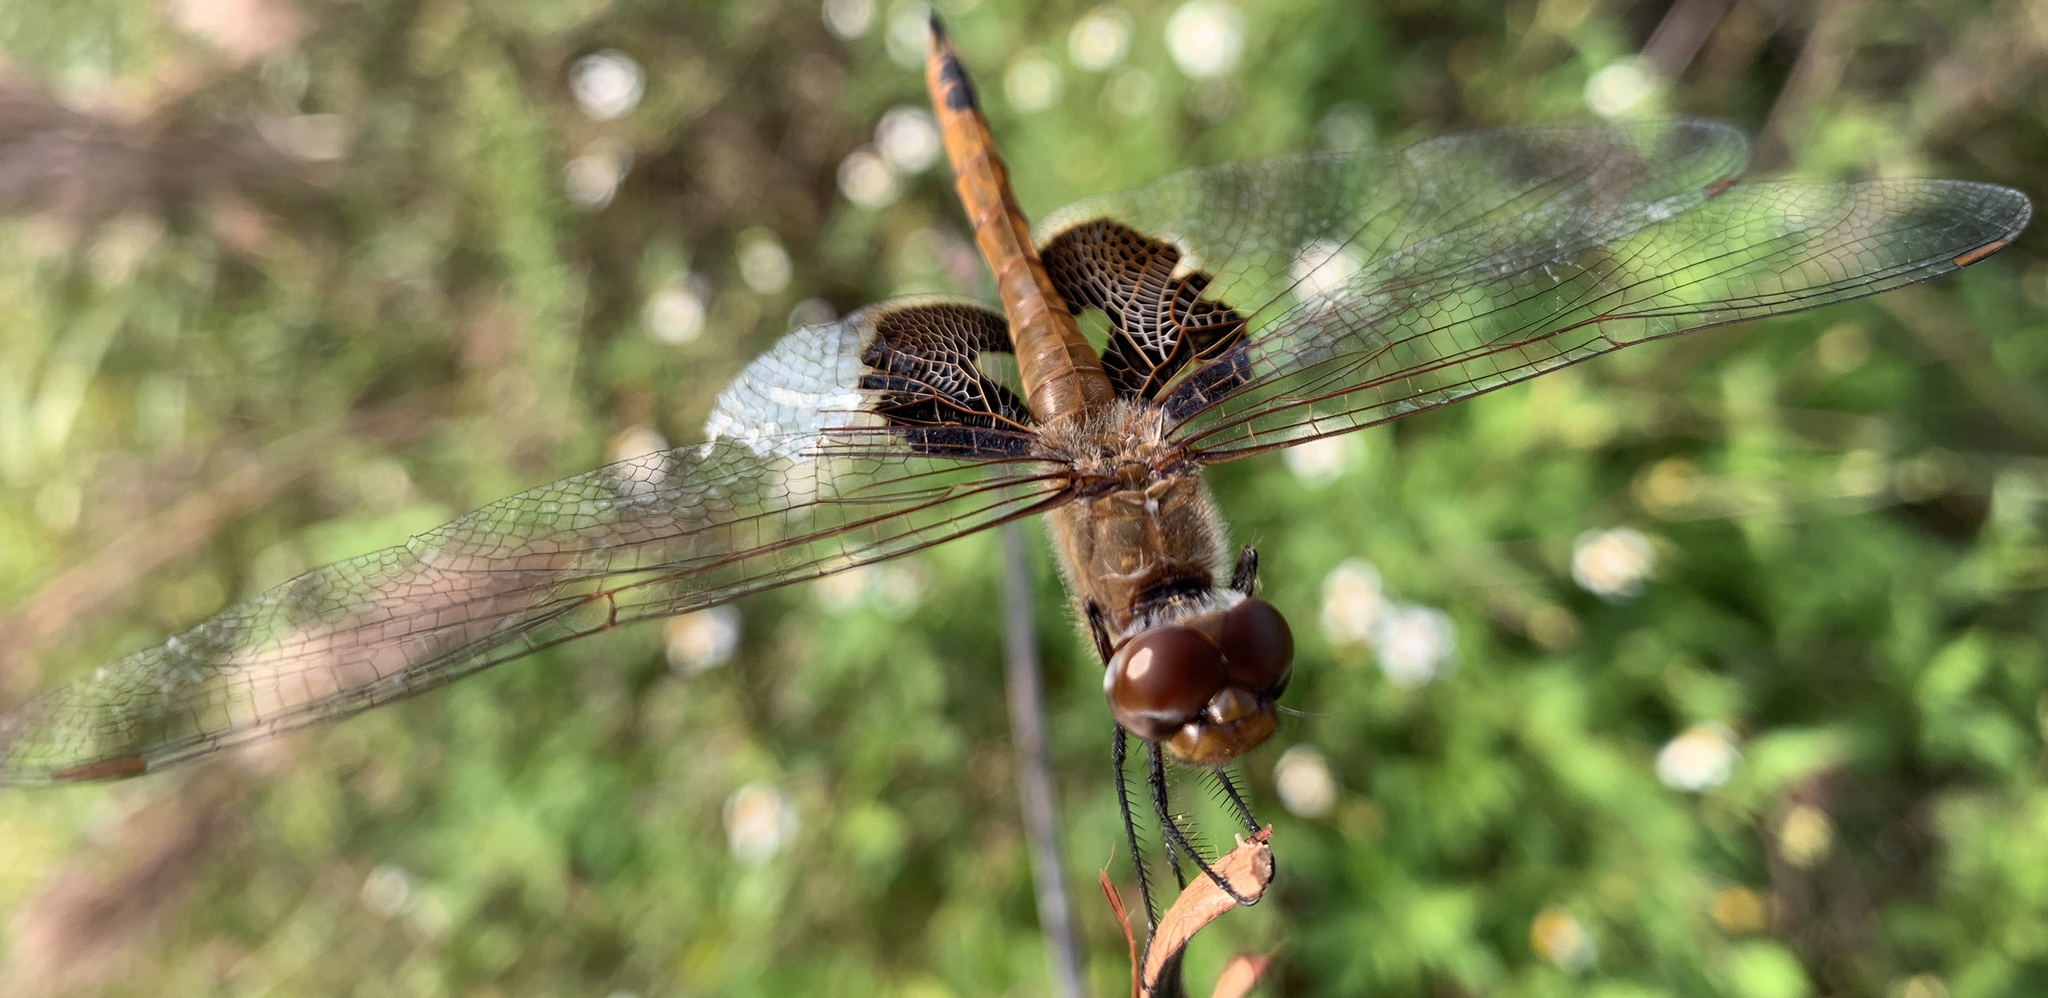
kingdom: Animalia
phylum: Arthropoda
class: Insecta
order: Odonata
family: Libellulidae
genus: Tramea
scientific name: Tramea onusta
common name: Red saddlebags
